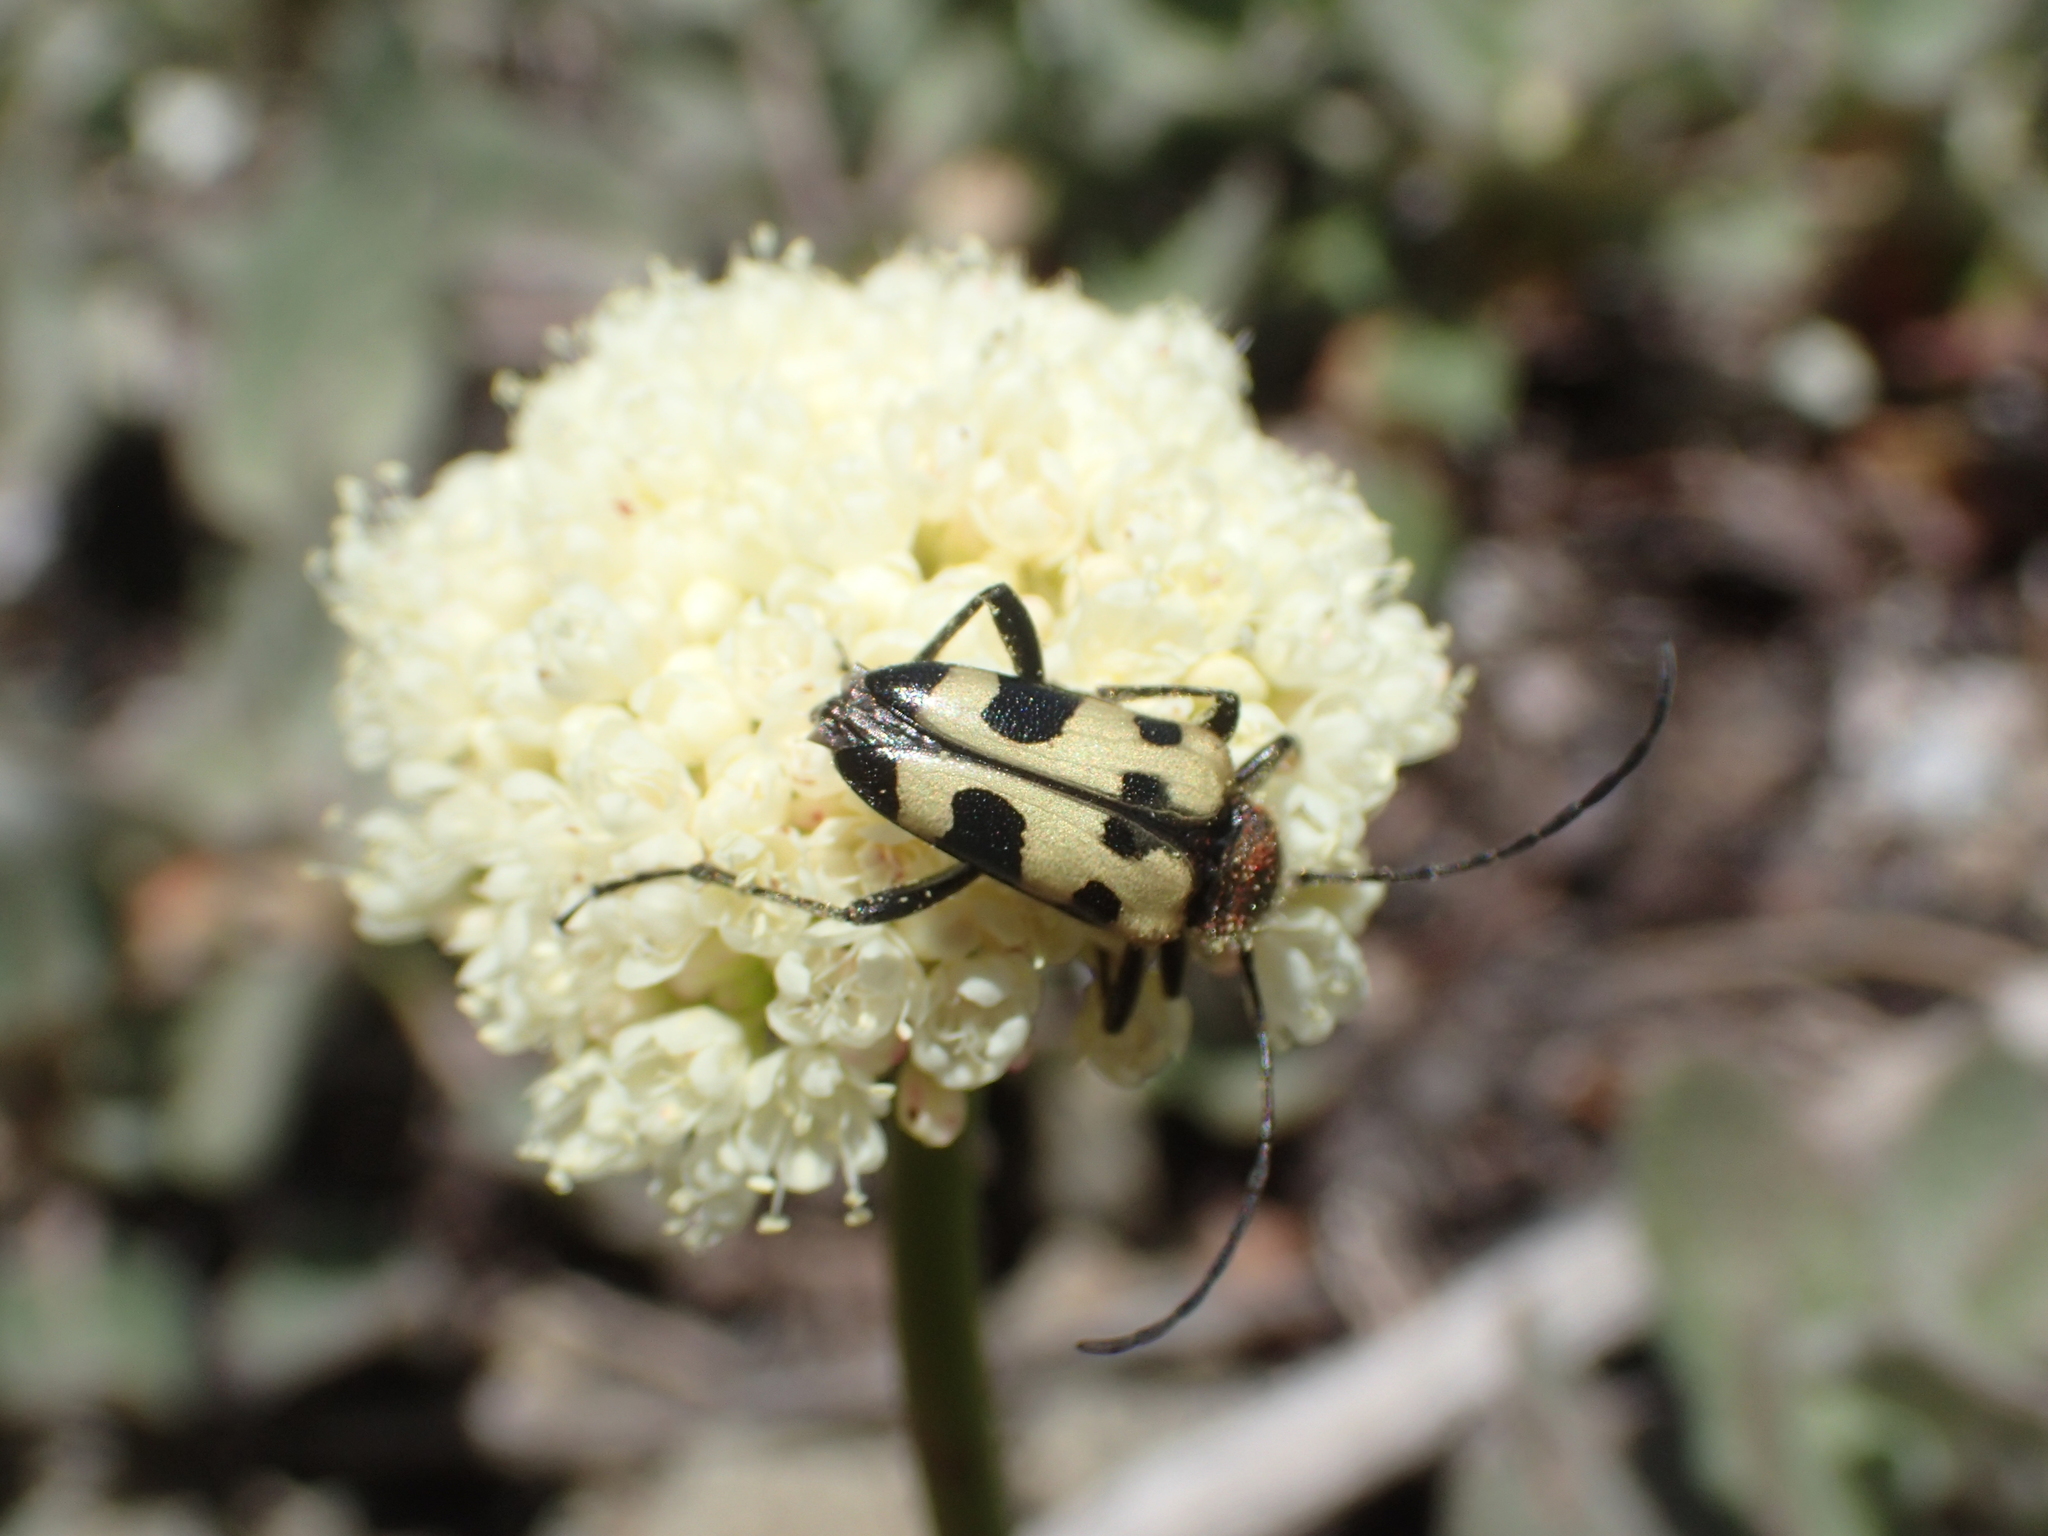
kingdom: Animalia
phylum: Arthropoda
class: Insecta
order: Coleoptera
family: Cerambycidae
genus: Judolia
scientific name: Judolia instabilis
